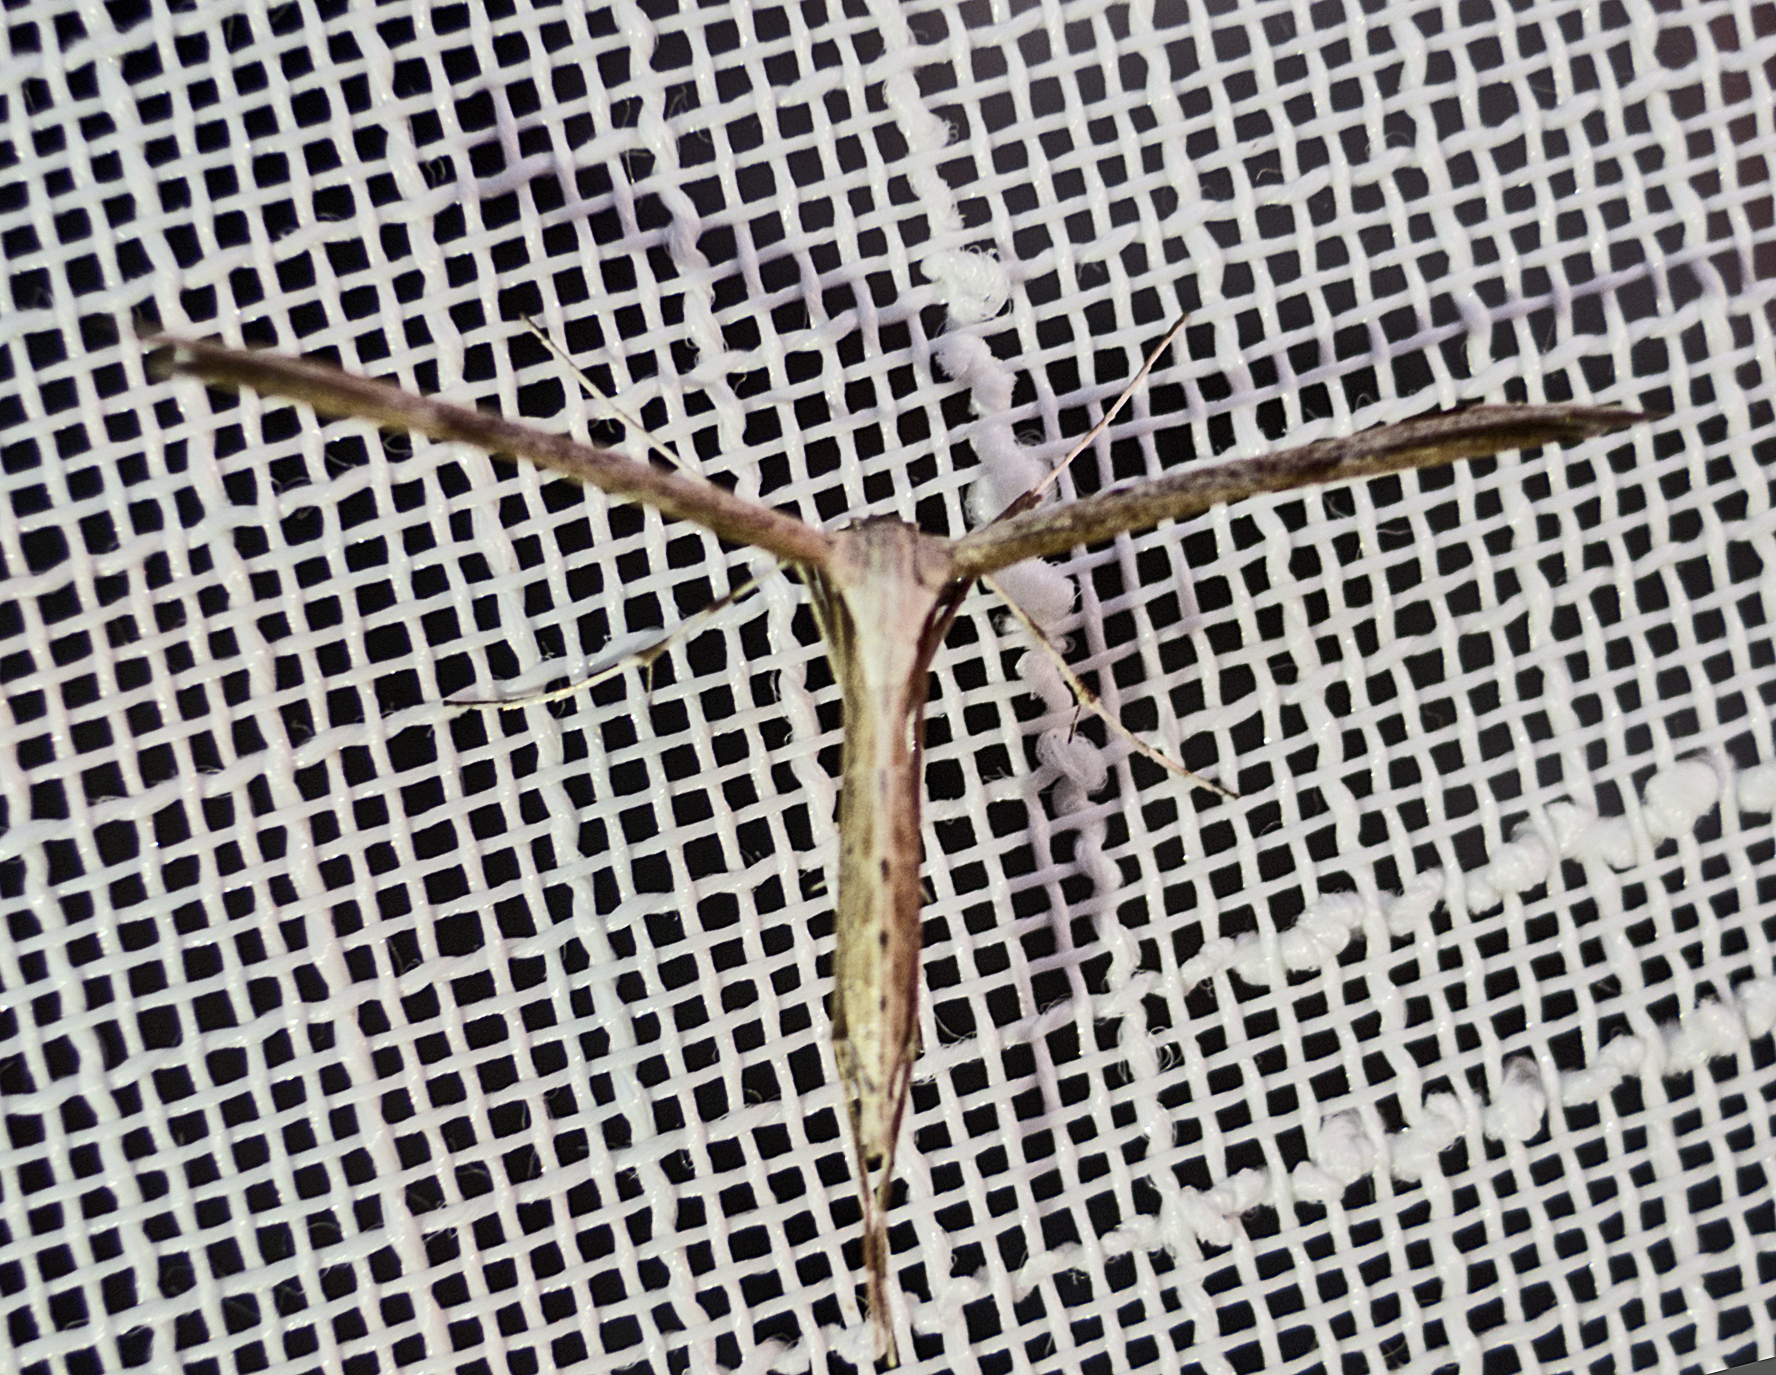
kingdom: Animalia
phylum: Arthropoda
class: Insecta
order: Lepidoptera
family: Pterophoridae
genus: Emmelina
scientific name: Emmelina monodactyla
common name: Common plume
